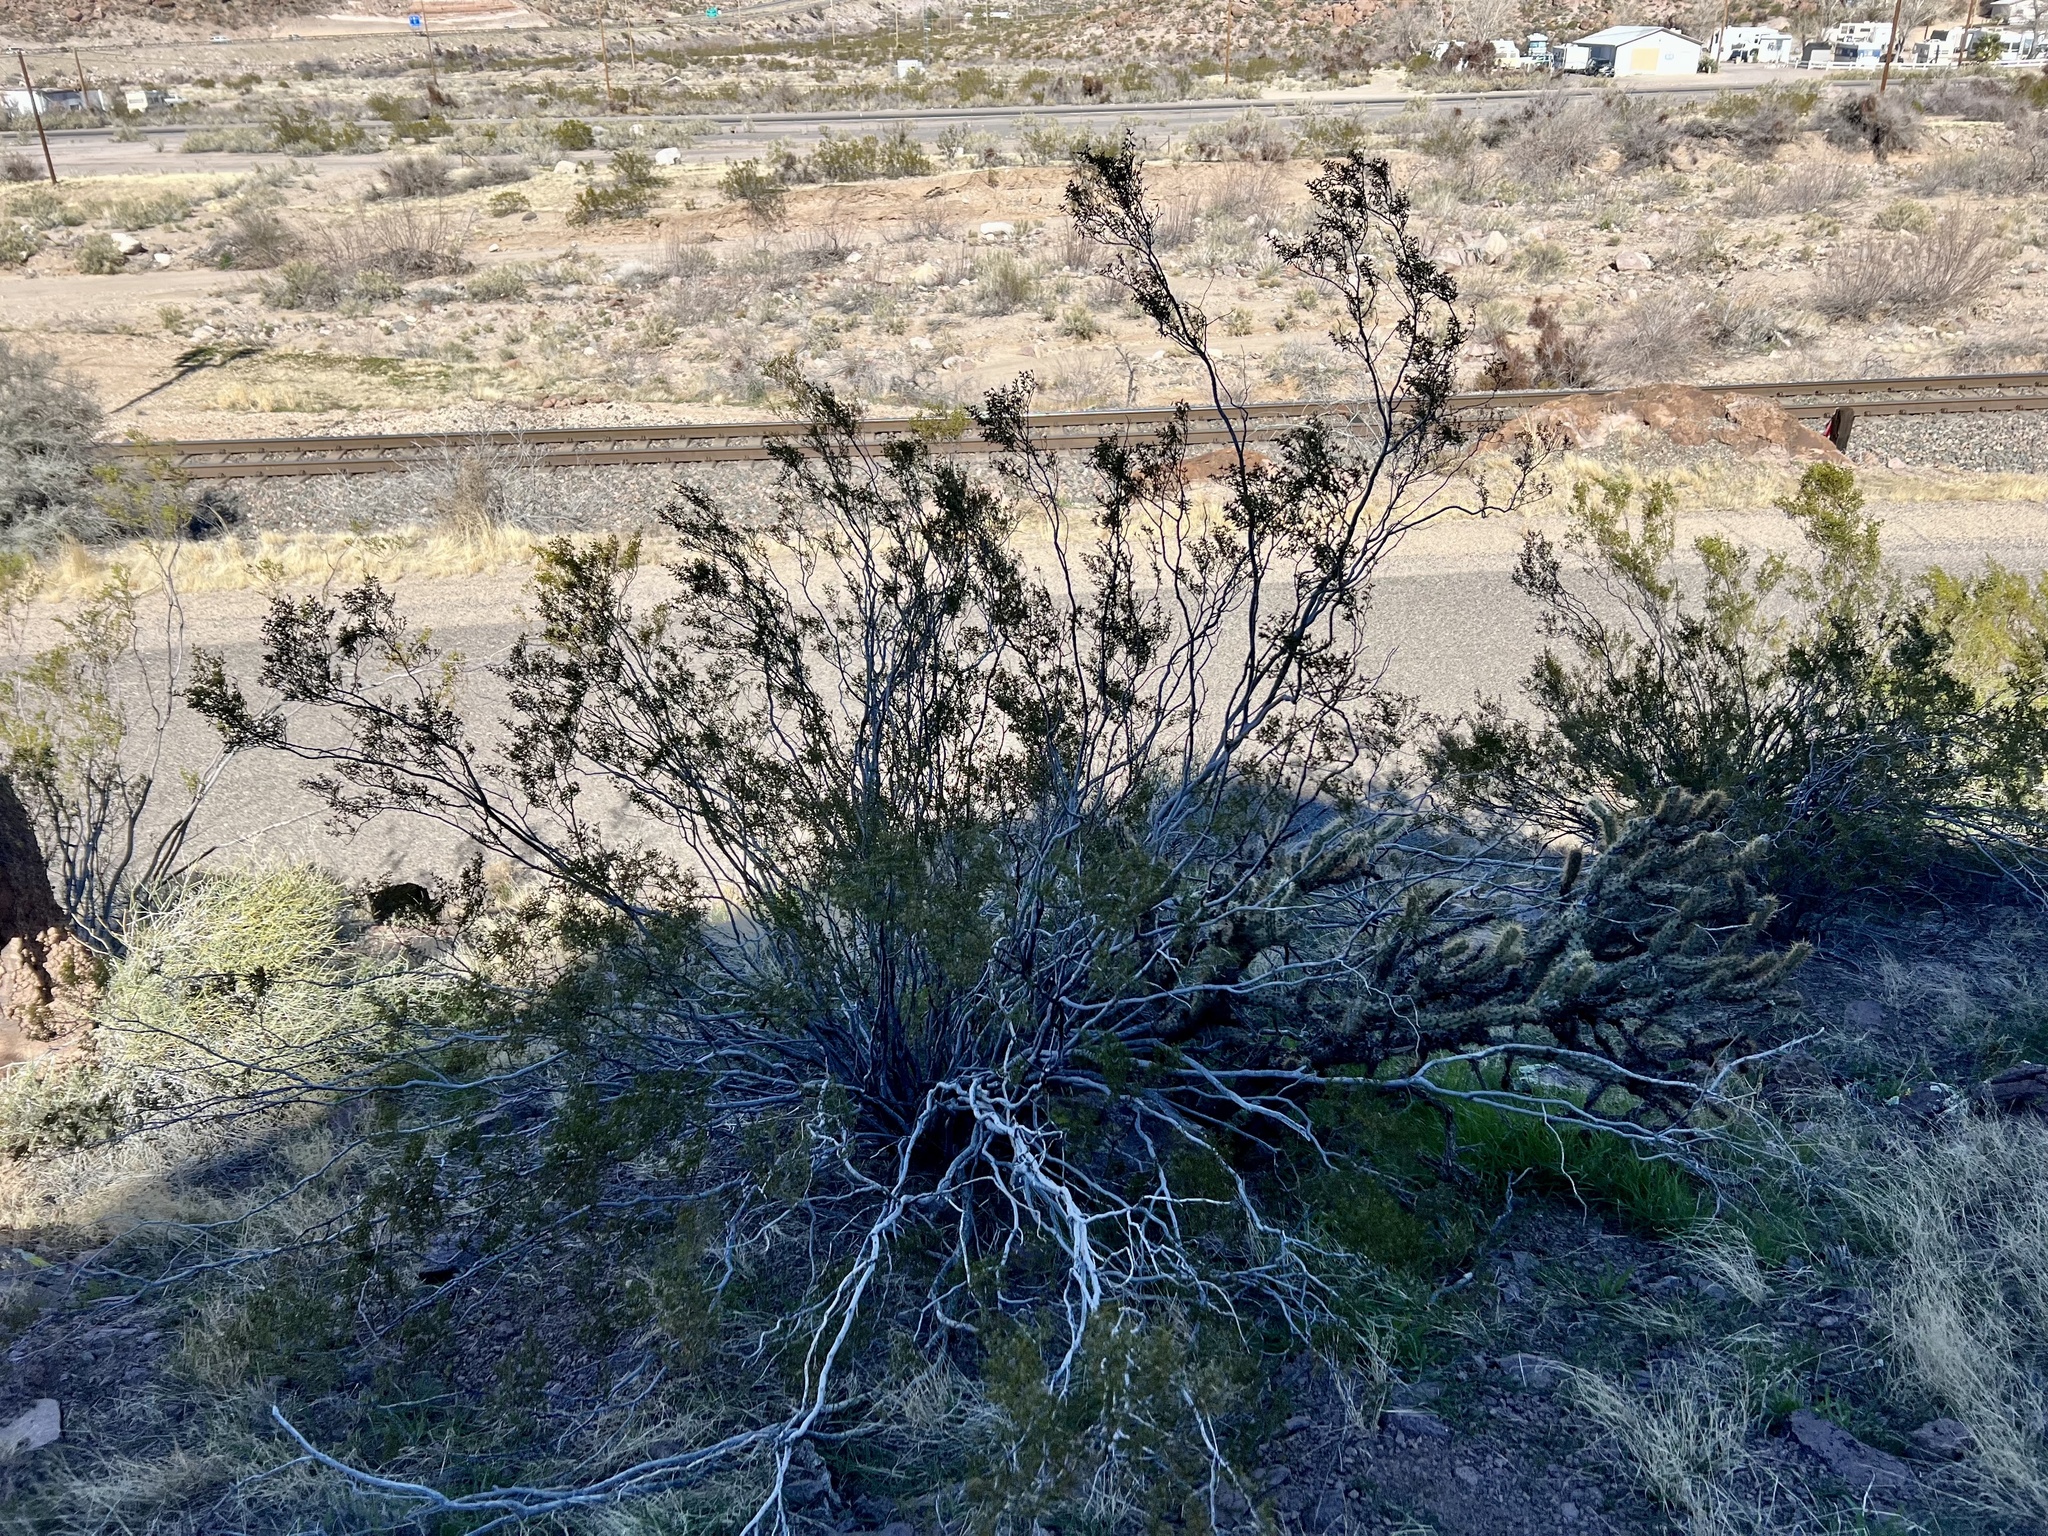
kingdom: Plantae
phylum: Tracheophyta
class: Magnoliopsida
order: Zygophyllales
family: Zygophyllaceae
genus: Larrea
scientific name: Larrea tridentata
